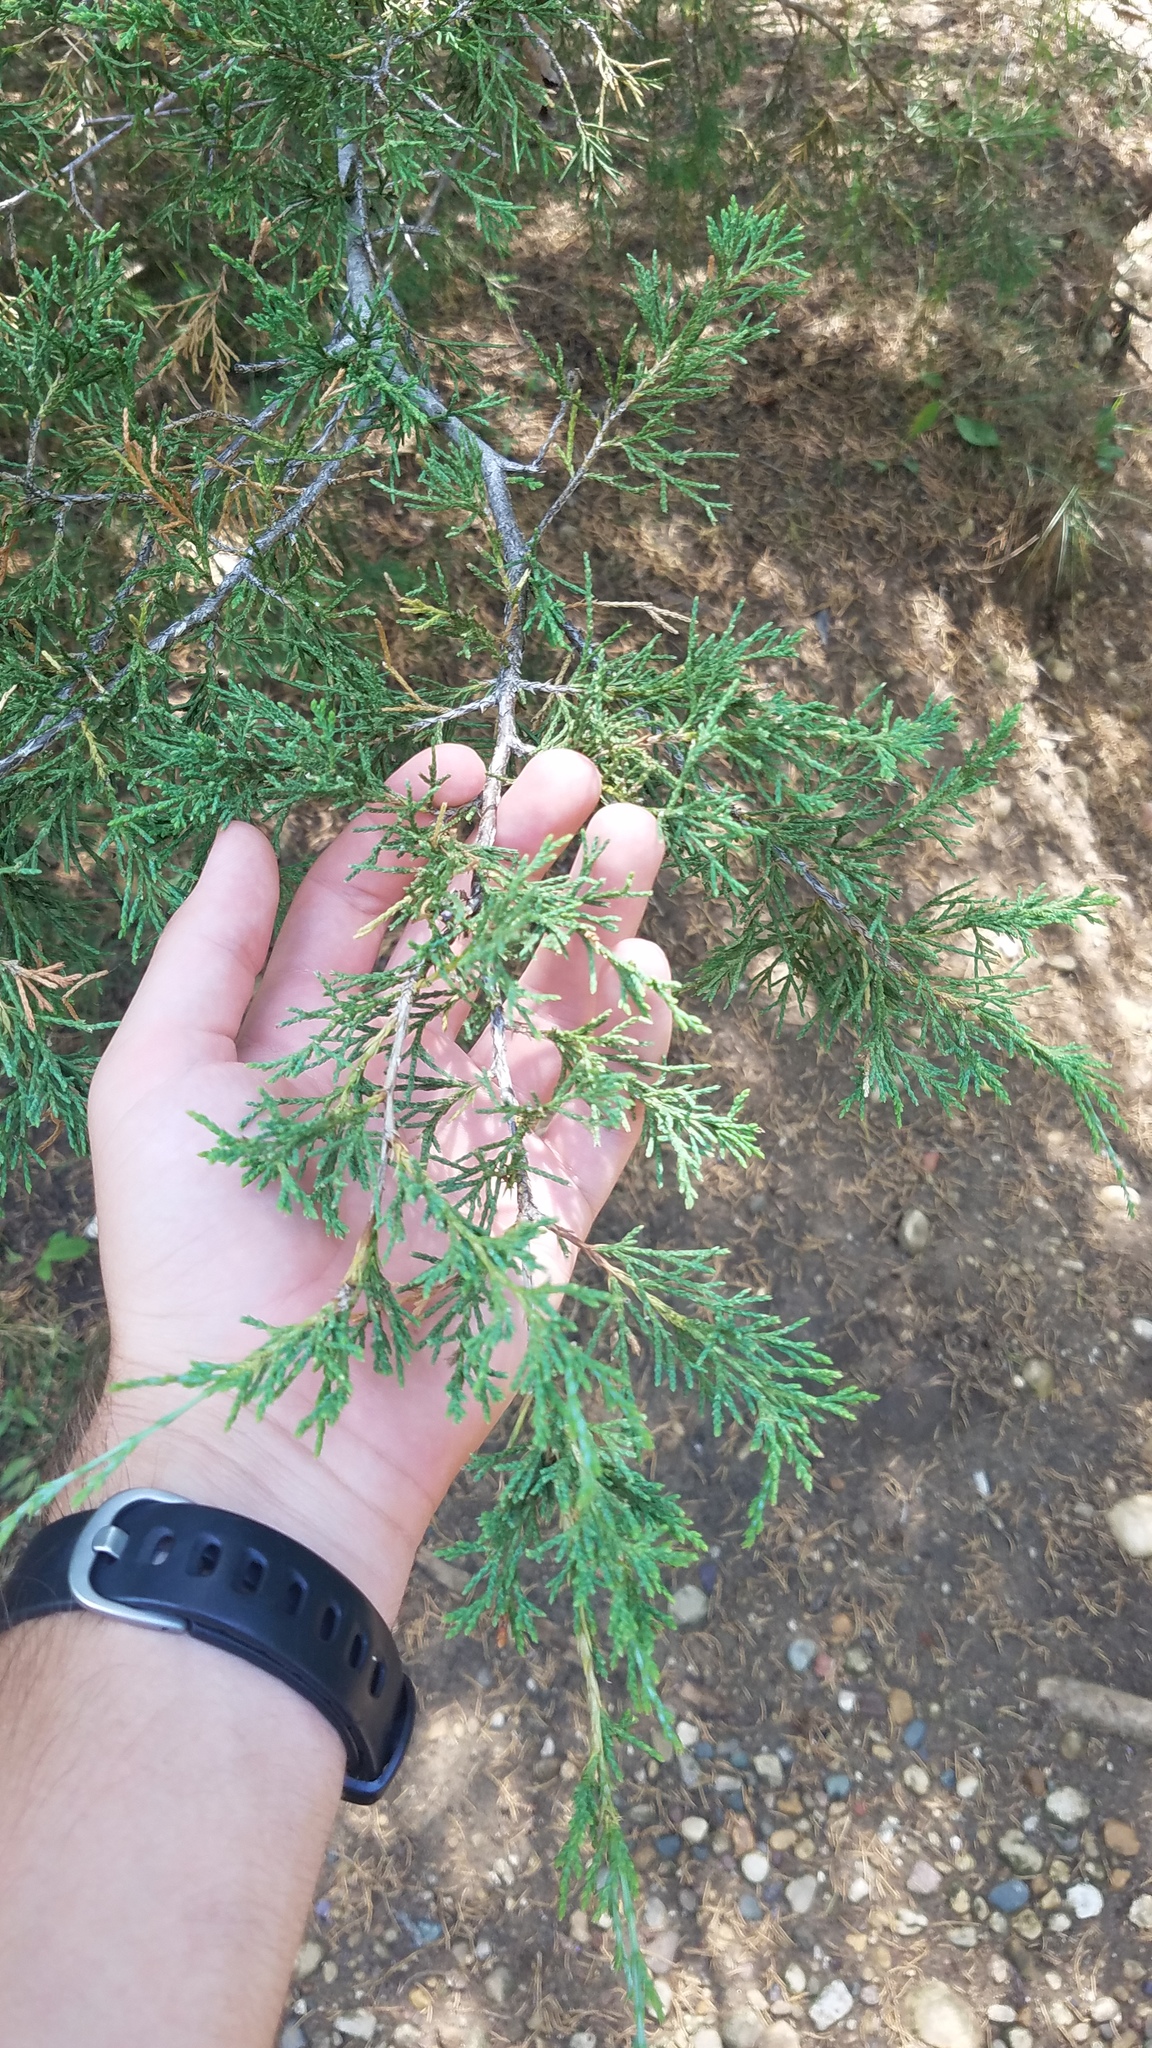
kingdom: Plantae
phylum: Tracheophyta
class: Pinopsida
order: Pinales
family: Cupressaceae
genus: Juniperus
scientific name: Juniperus virginiana
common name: Red juniper
